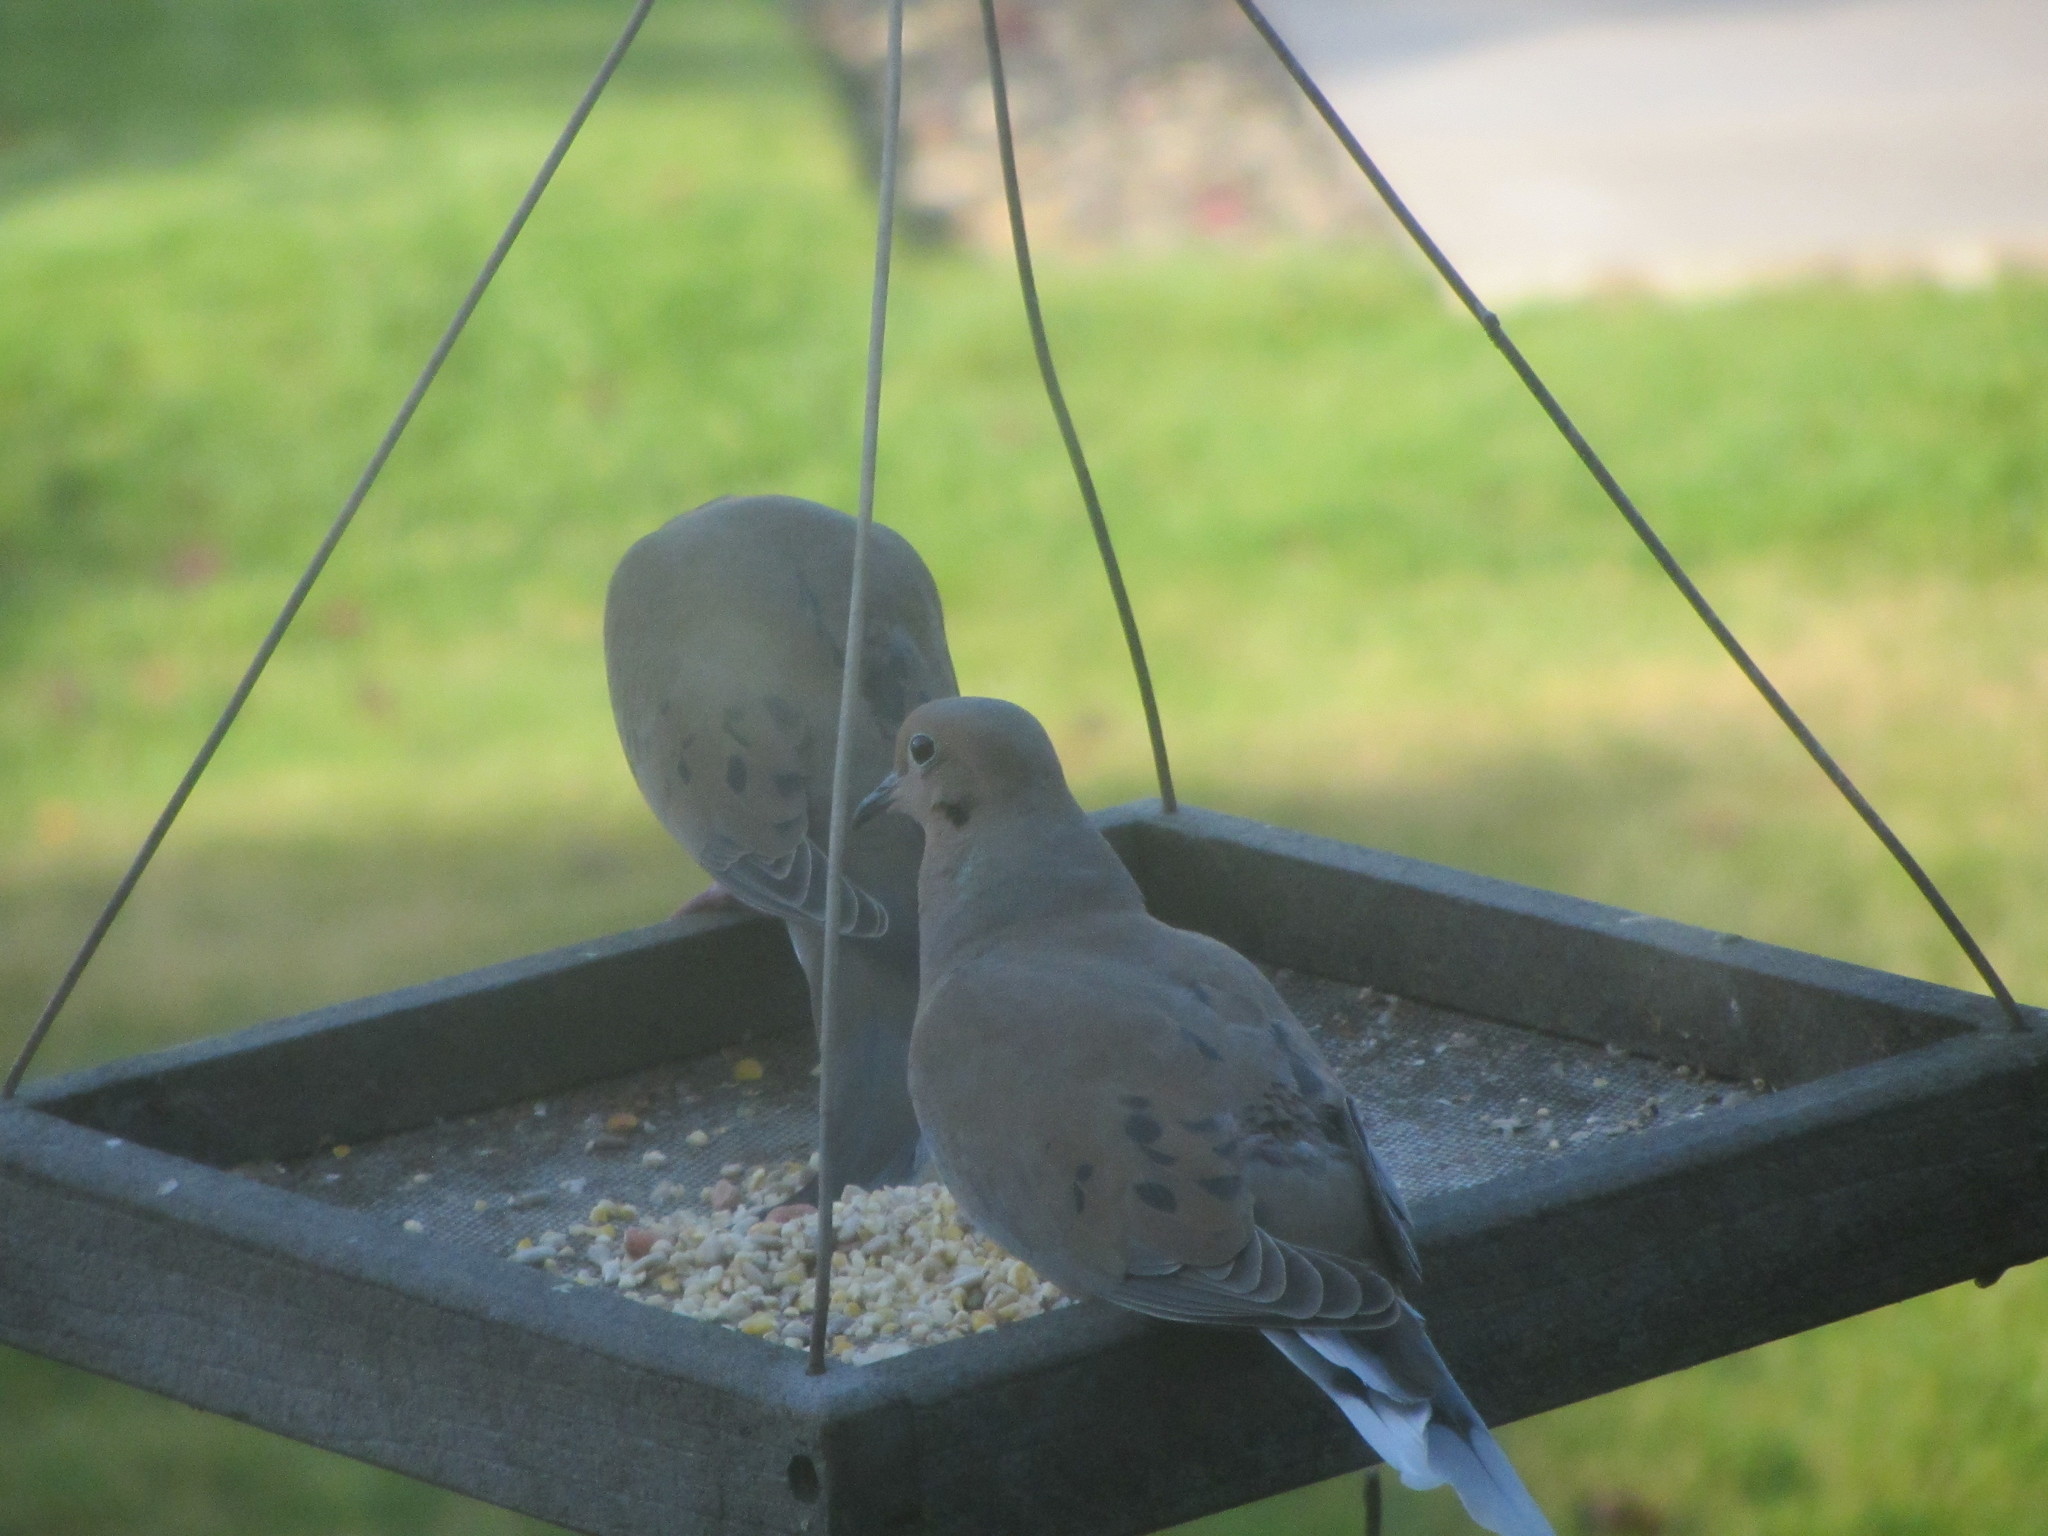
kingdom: Animalia
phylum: Chordata
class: Aves
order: Columbiformes
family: Columbidae
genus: Zenaida
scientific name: Zenaida macroura
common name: Mourning dove
